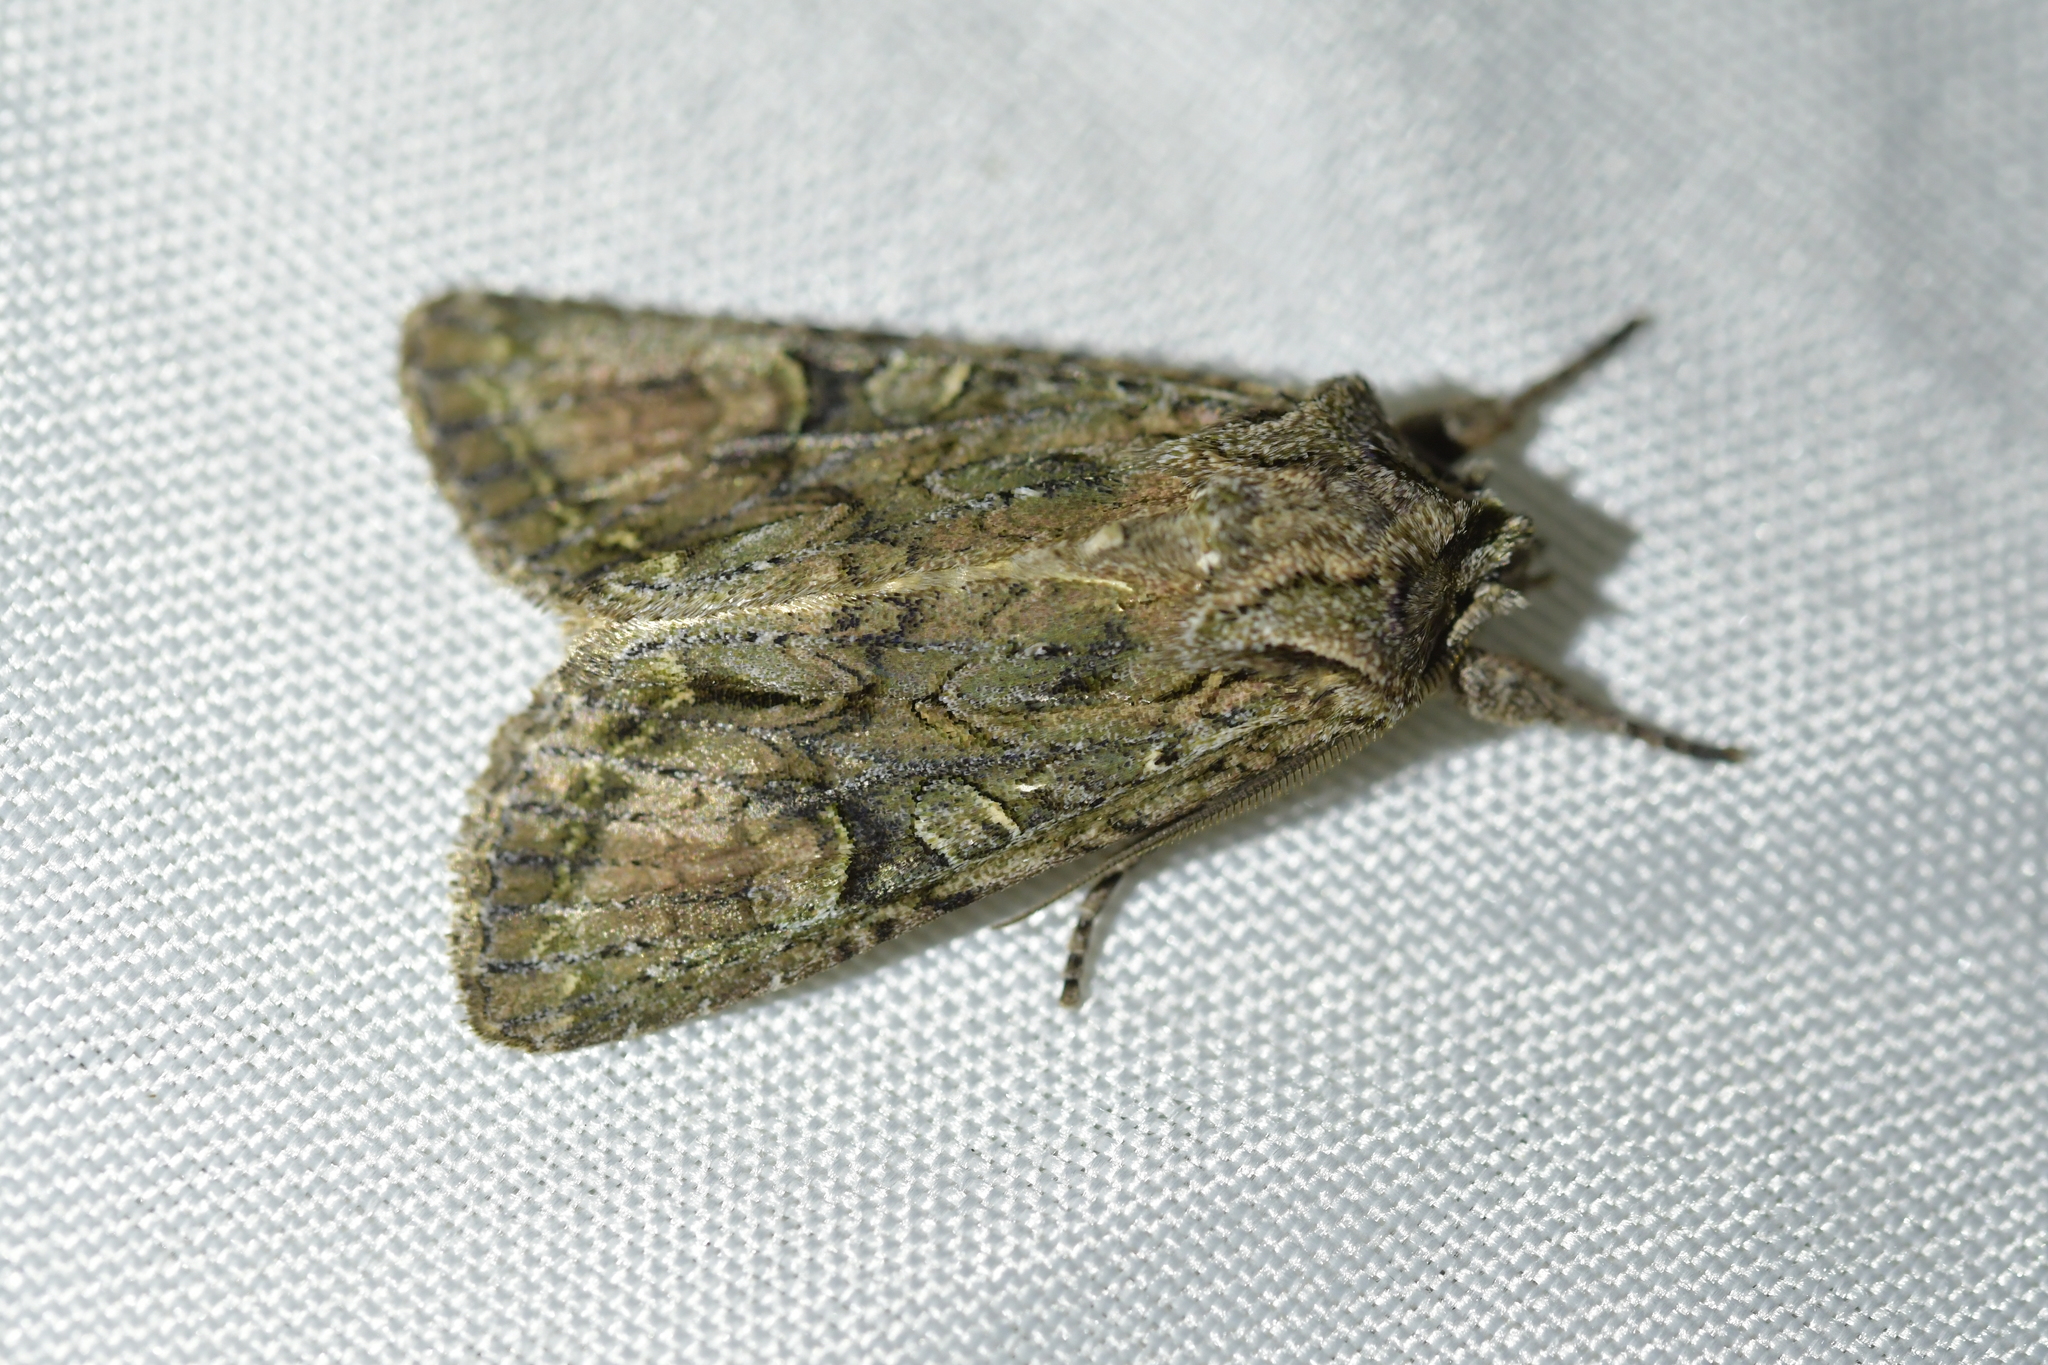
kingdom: Animalia
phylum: Arthropoda
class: Insecta
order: Lepidoptera
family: Noctuidae
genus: Ichneutica
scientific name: Ichneutica mutans
